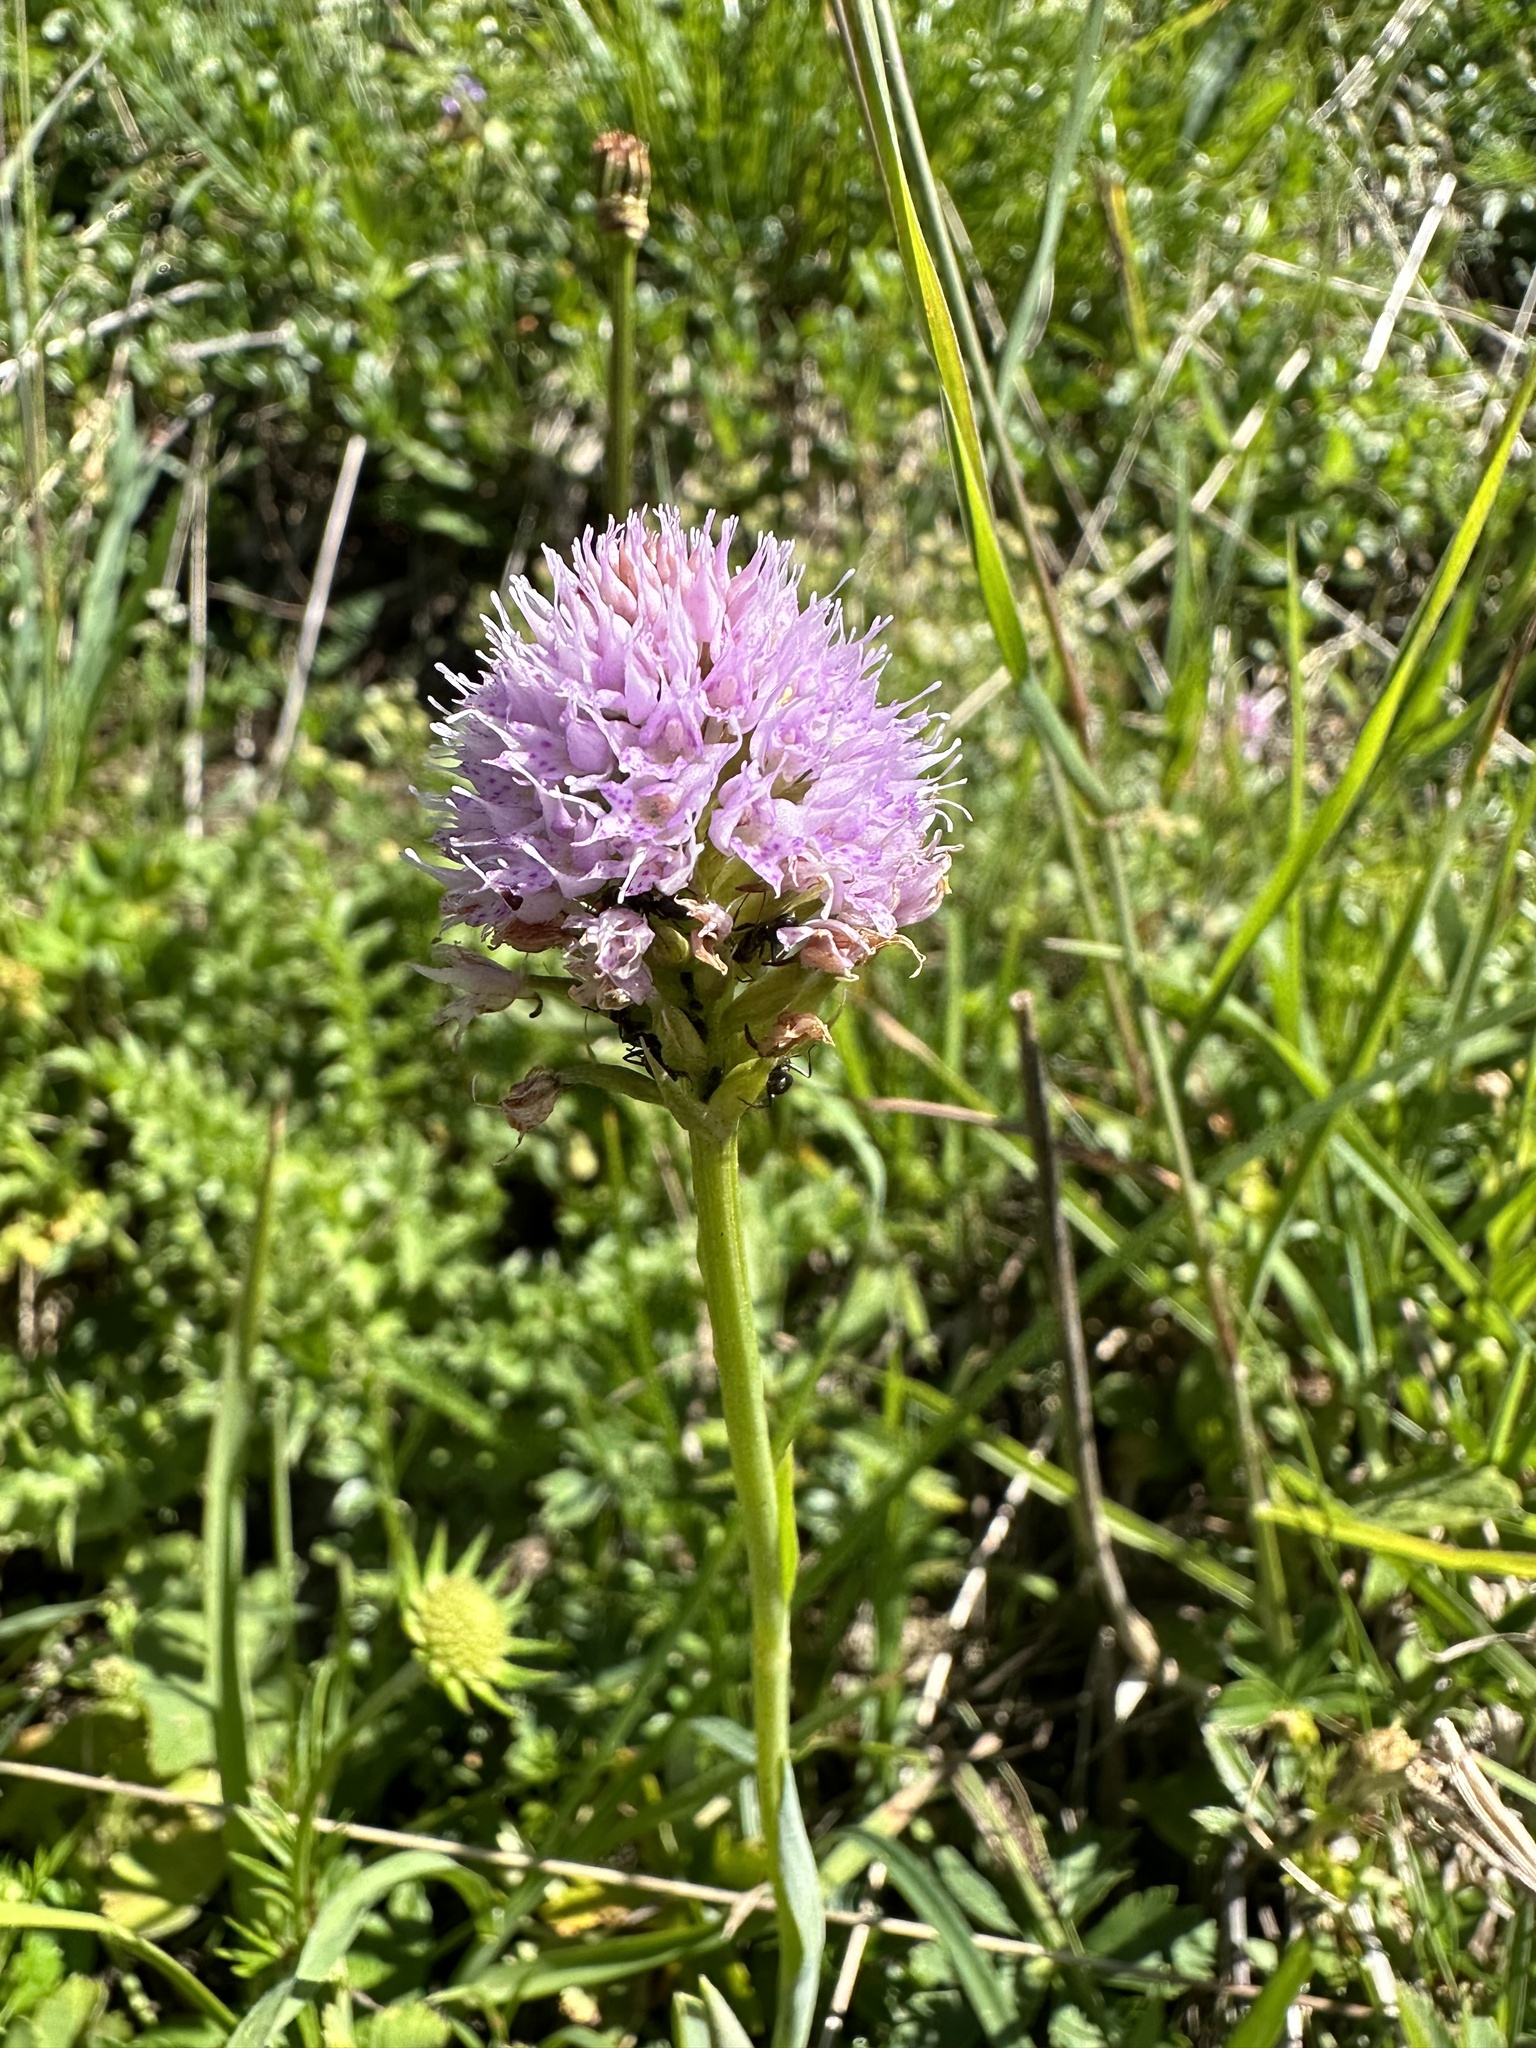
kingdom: Plantae
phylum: Tracheophyta
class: Liliopsida
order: Asparagales
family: Orchidaceae
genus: Traunsteinera
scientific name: Traunsteinera globosa
